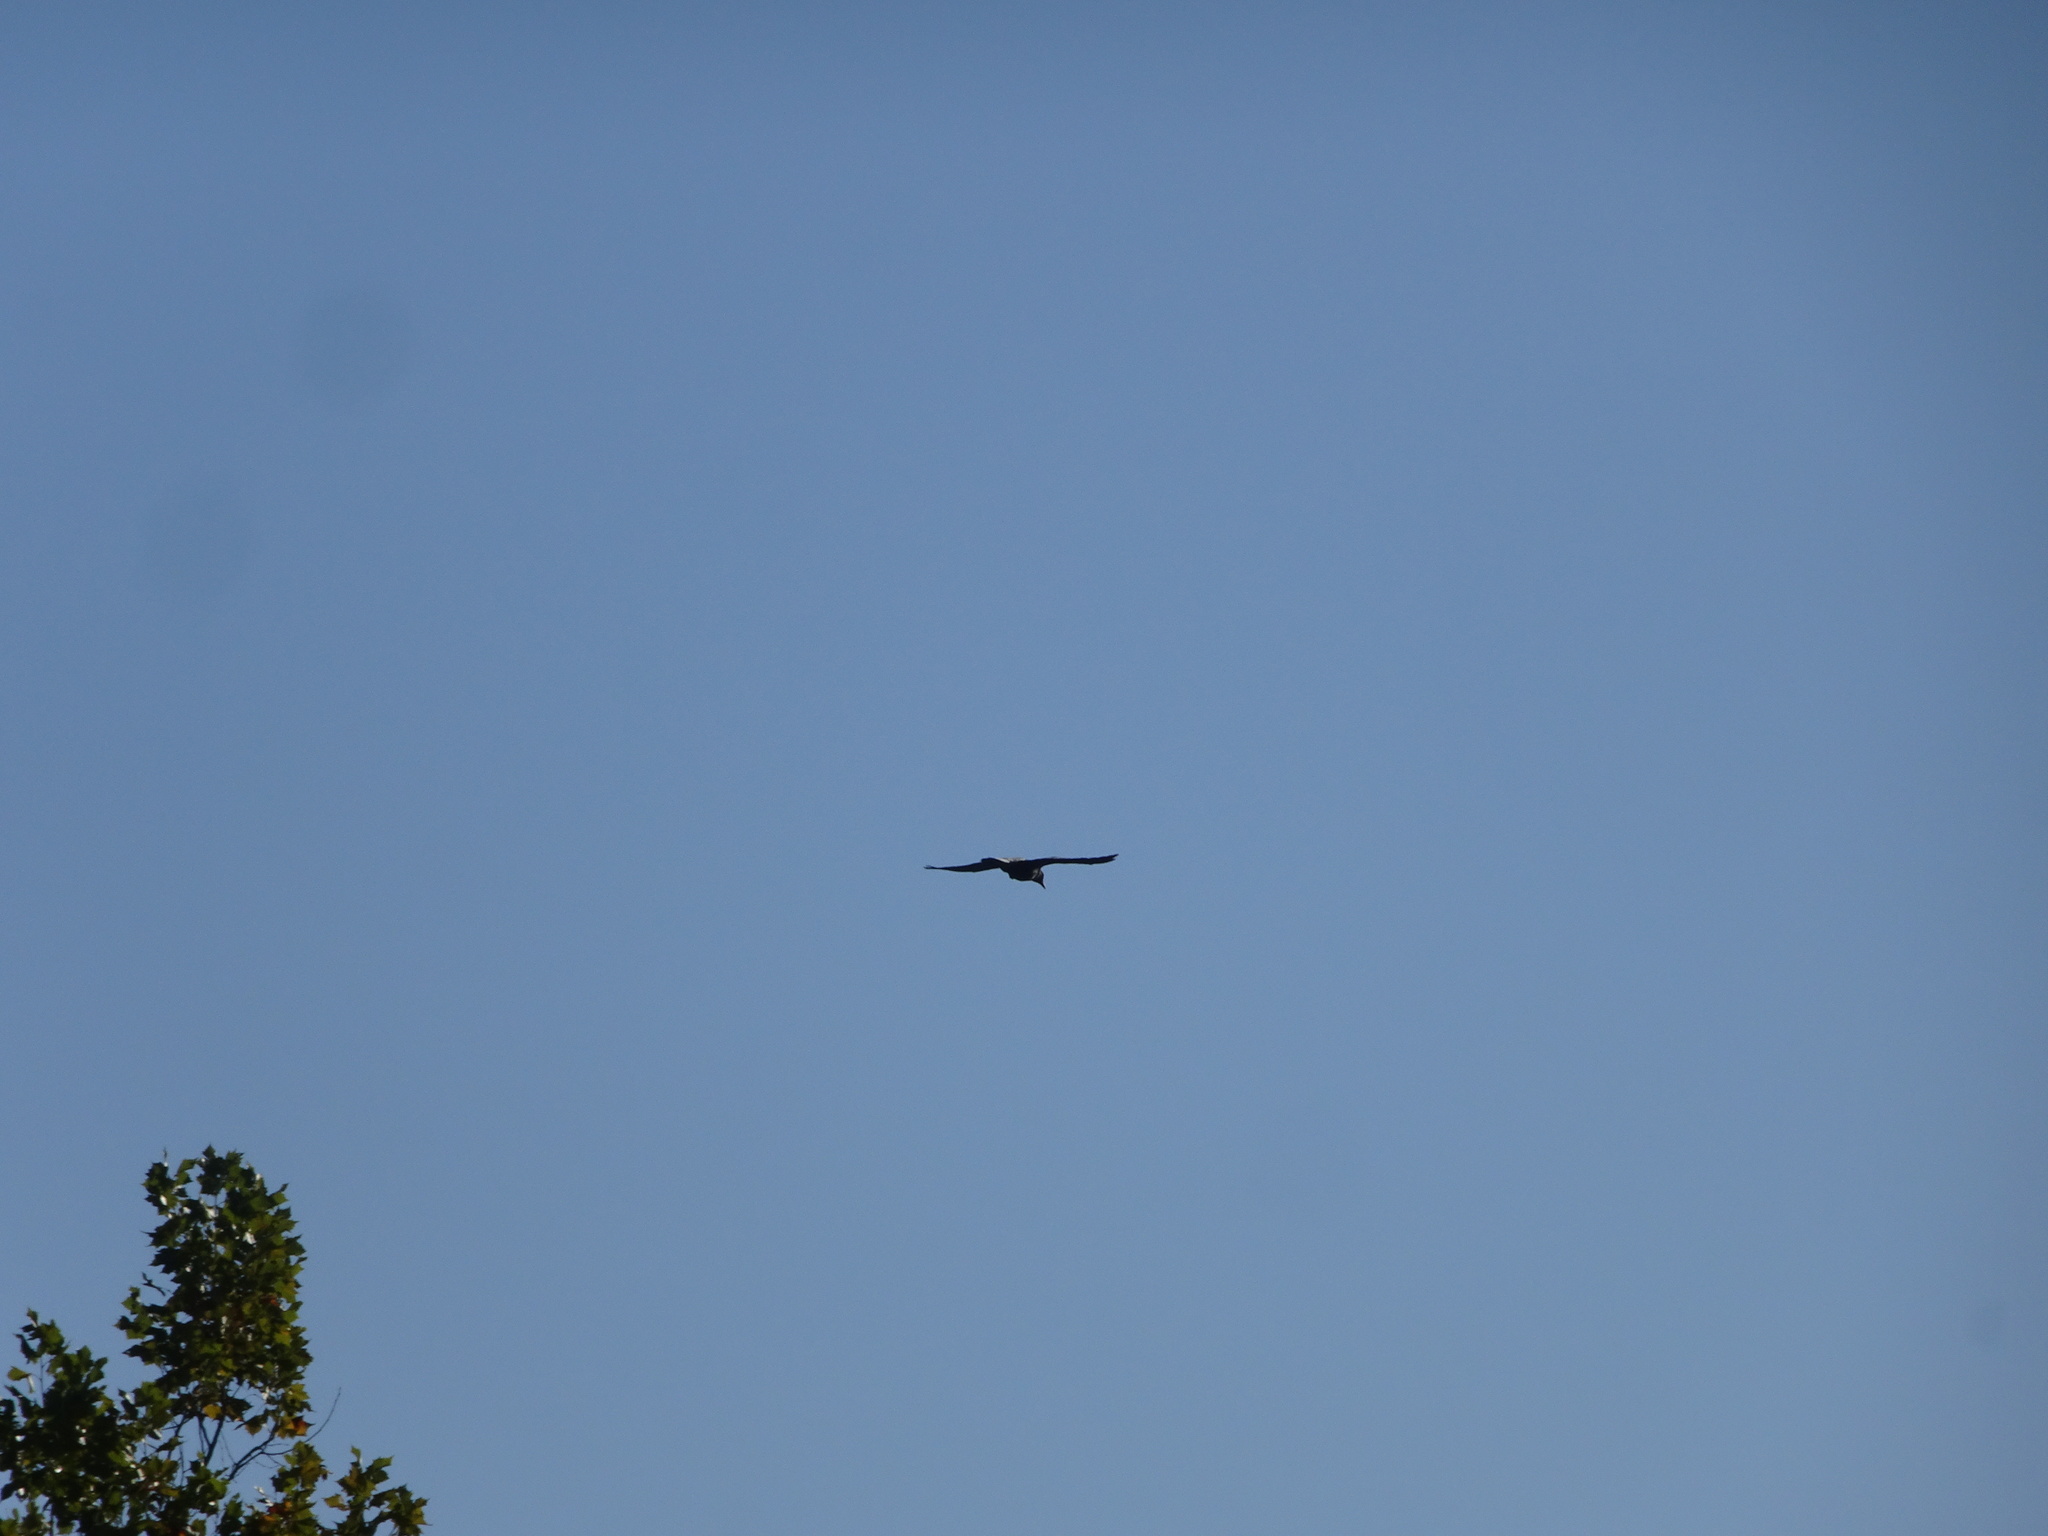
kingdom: Animalia
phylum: Chordata
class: Aves
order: Passeriformes
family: Corvidae
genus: Corvus
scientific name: Corvus brachyrhynchos
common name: American crow
